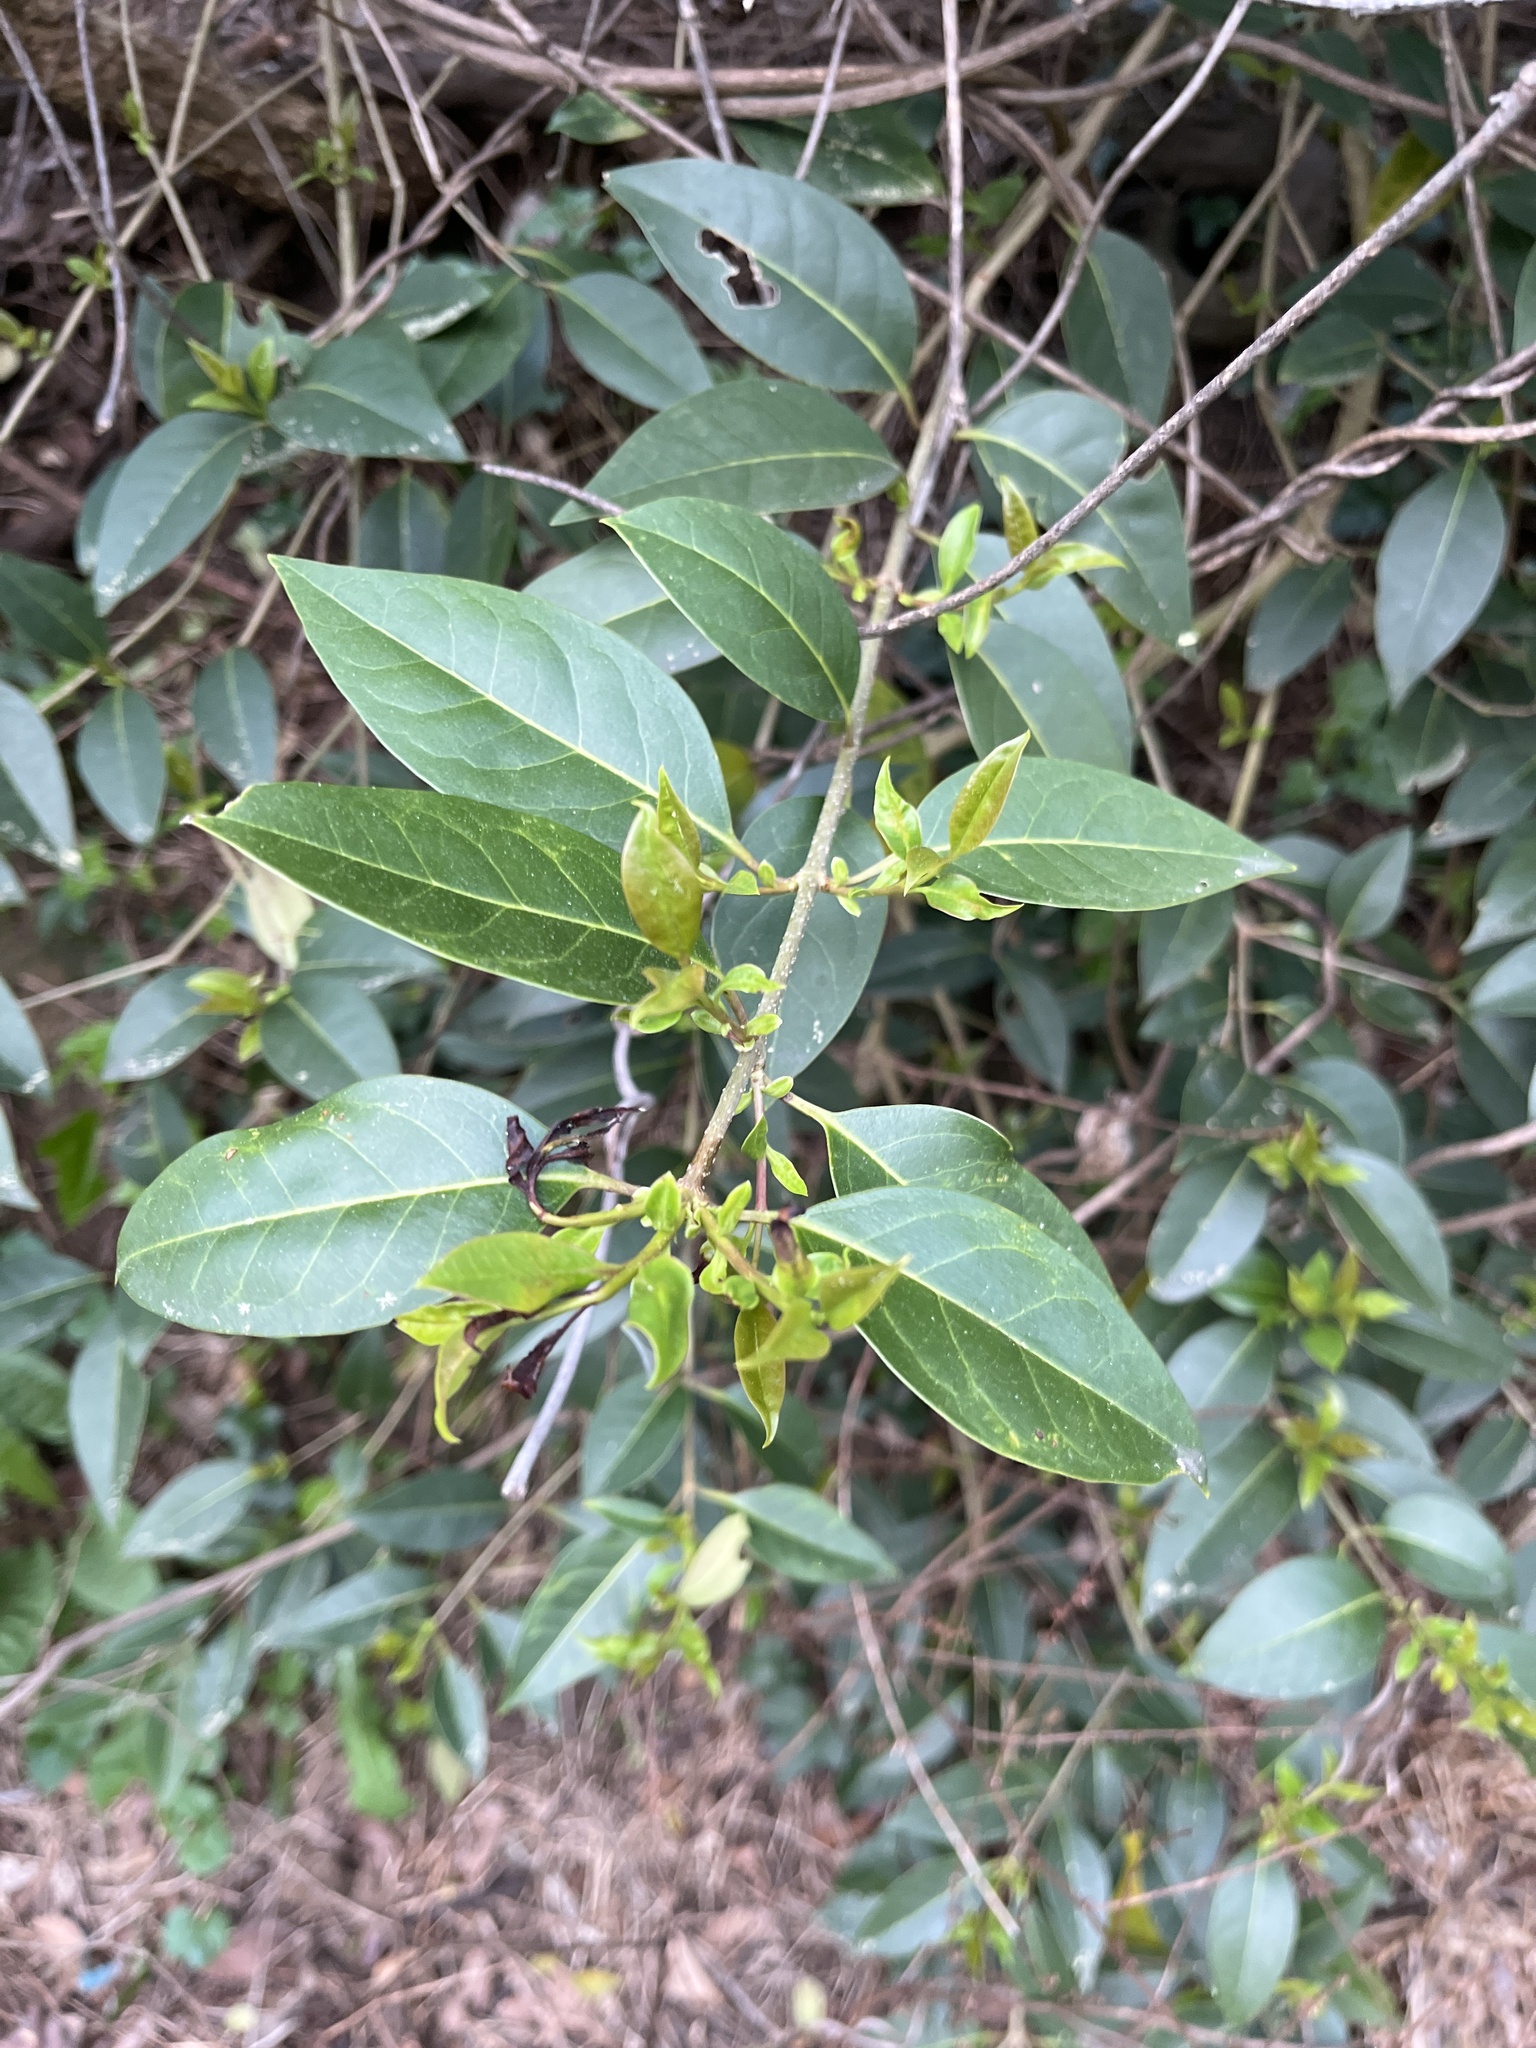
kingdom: Plantae
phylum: Tracheophyta
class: Magnoliopsida
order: Lamiales
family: Oleaceae
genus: Ligustrum
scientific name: Ligustrum lucidum
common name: Glossy privet
